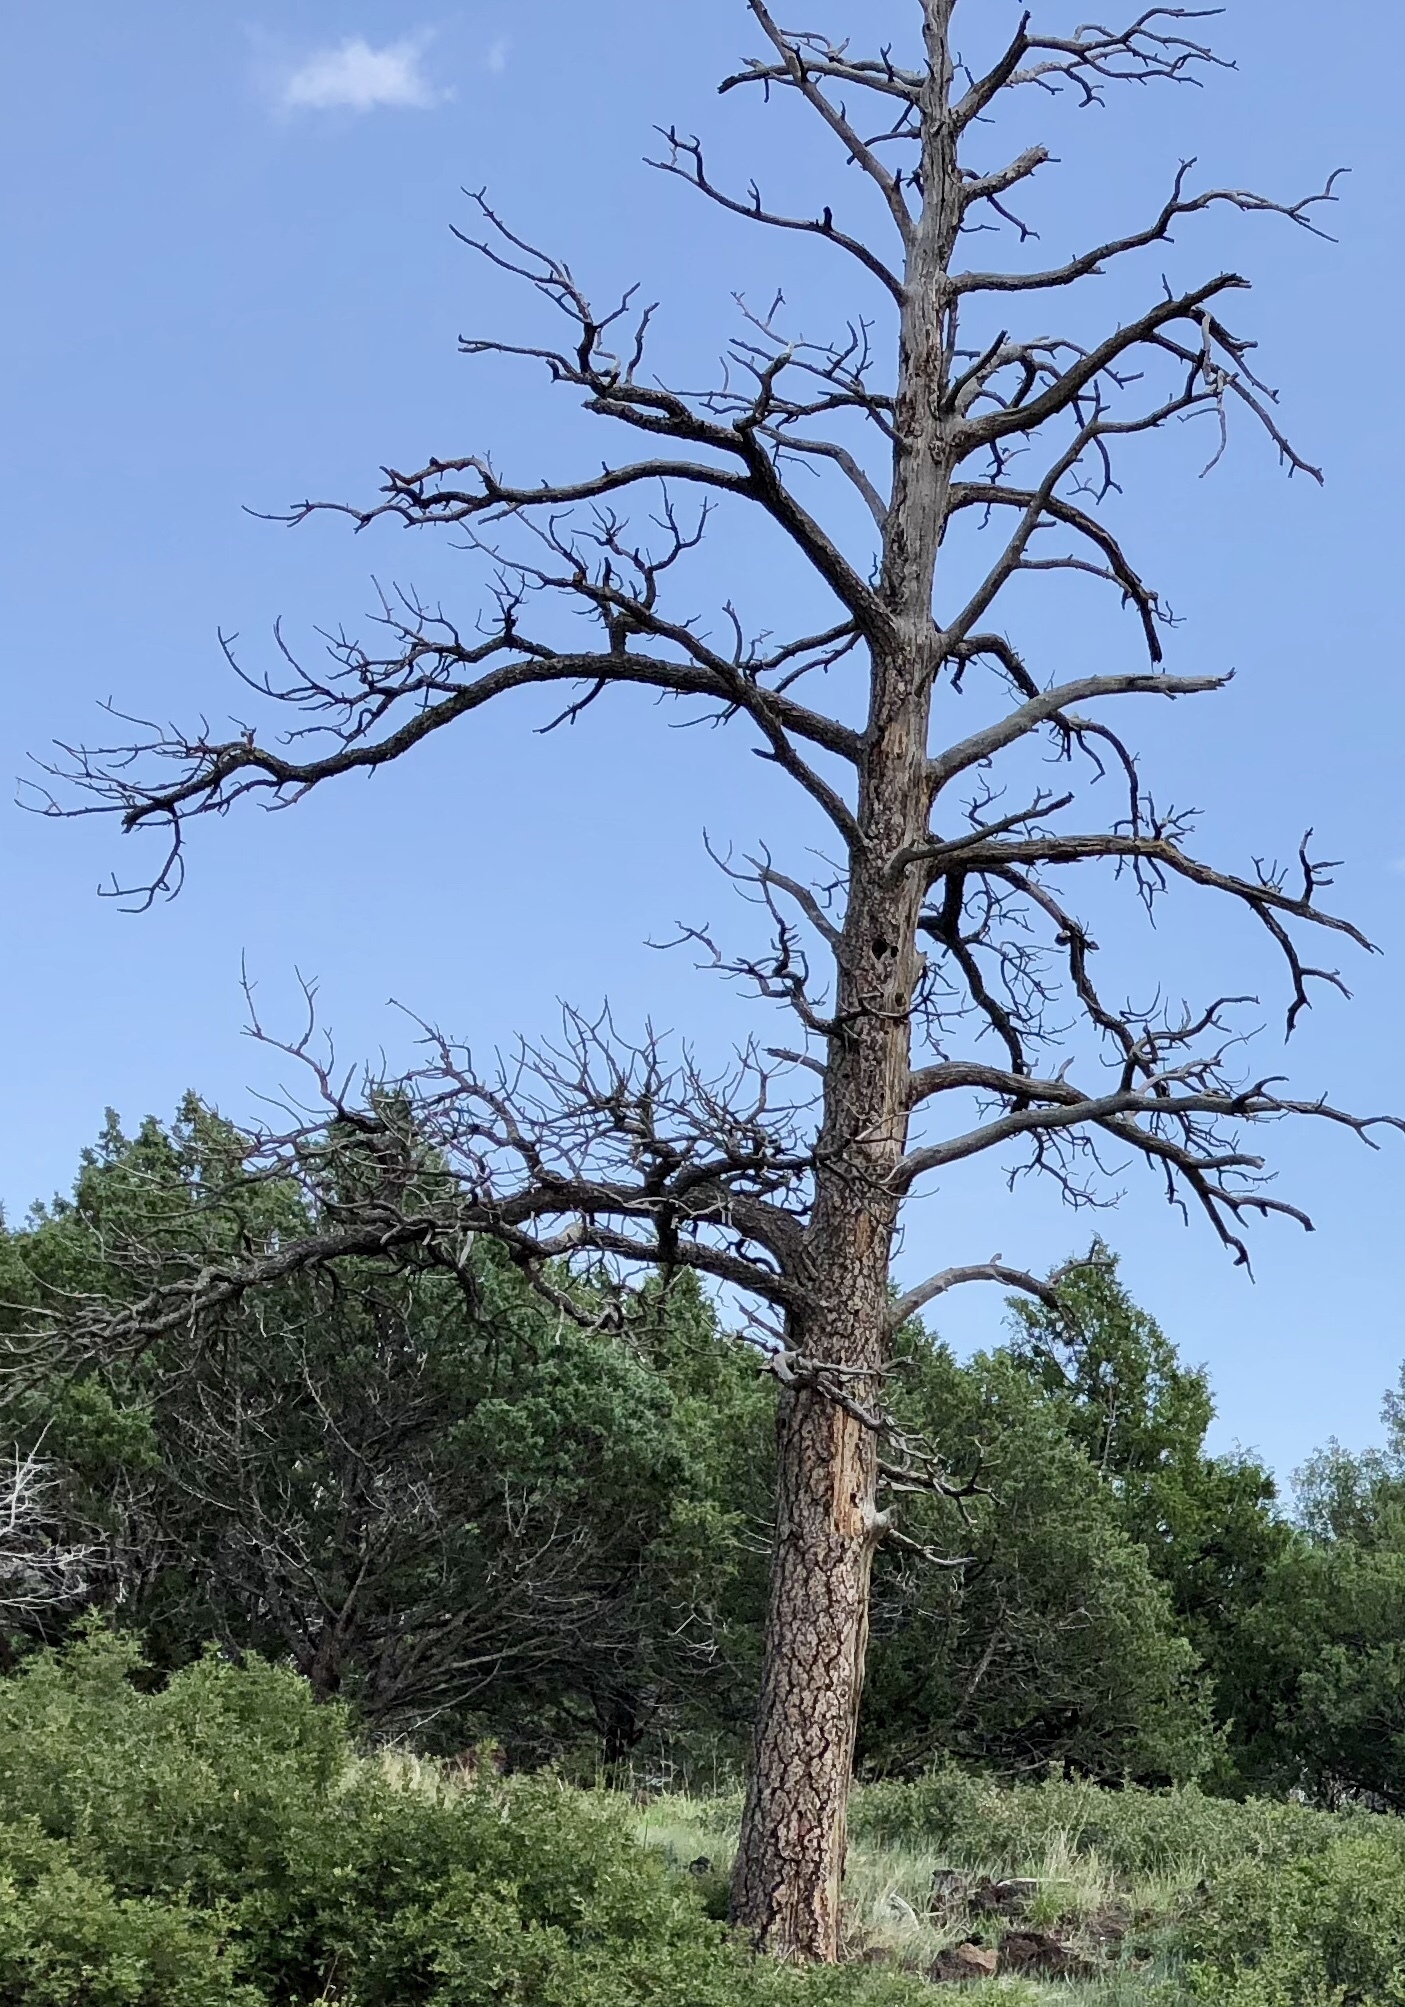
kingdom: Plantae
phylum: Tracheophyta
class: Pinopsida
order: Pinales
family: Pinaceae
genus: Pinus
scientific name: Pinus ponderosa
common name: Western yellow-pine
